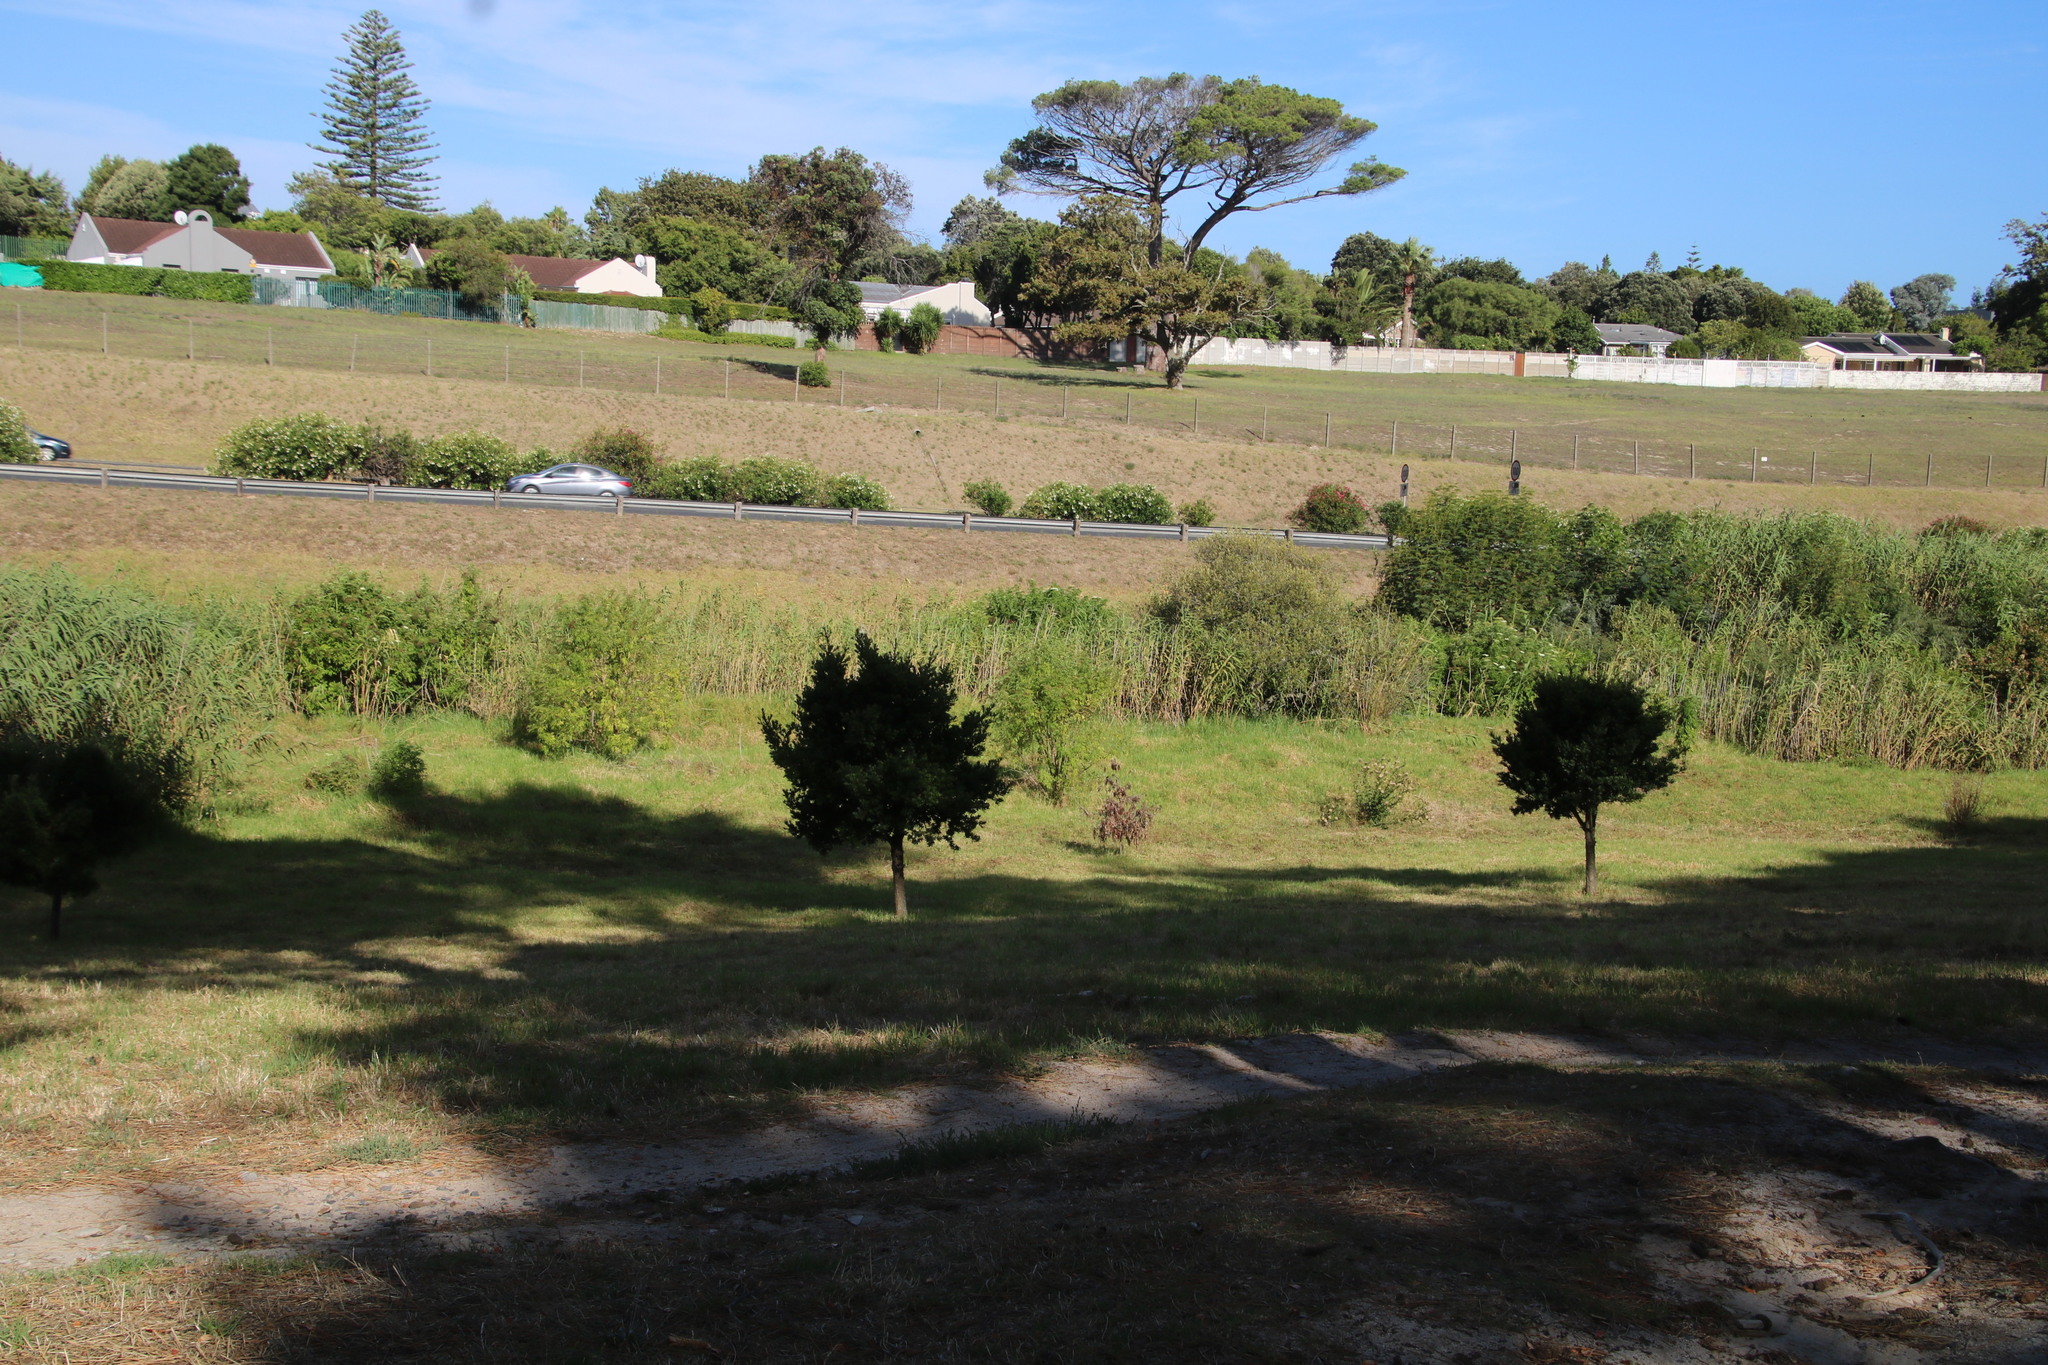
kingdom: Plantae
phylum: Tracheophyta
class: Pinopsida
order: Pinales
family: Podocarpaceae
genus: Podocarpus
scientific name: Podocarpus latifolius
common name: True yellowwood
